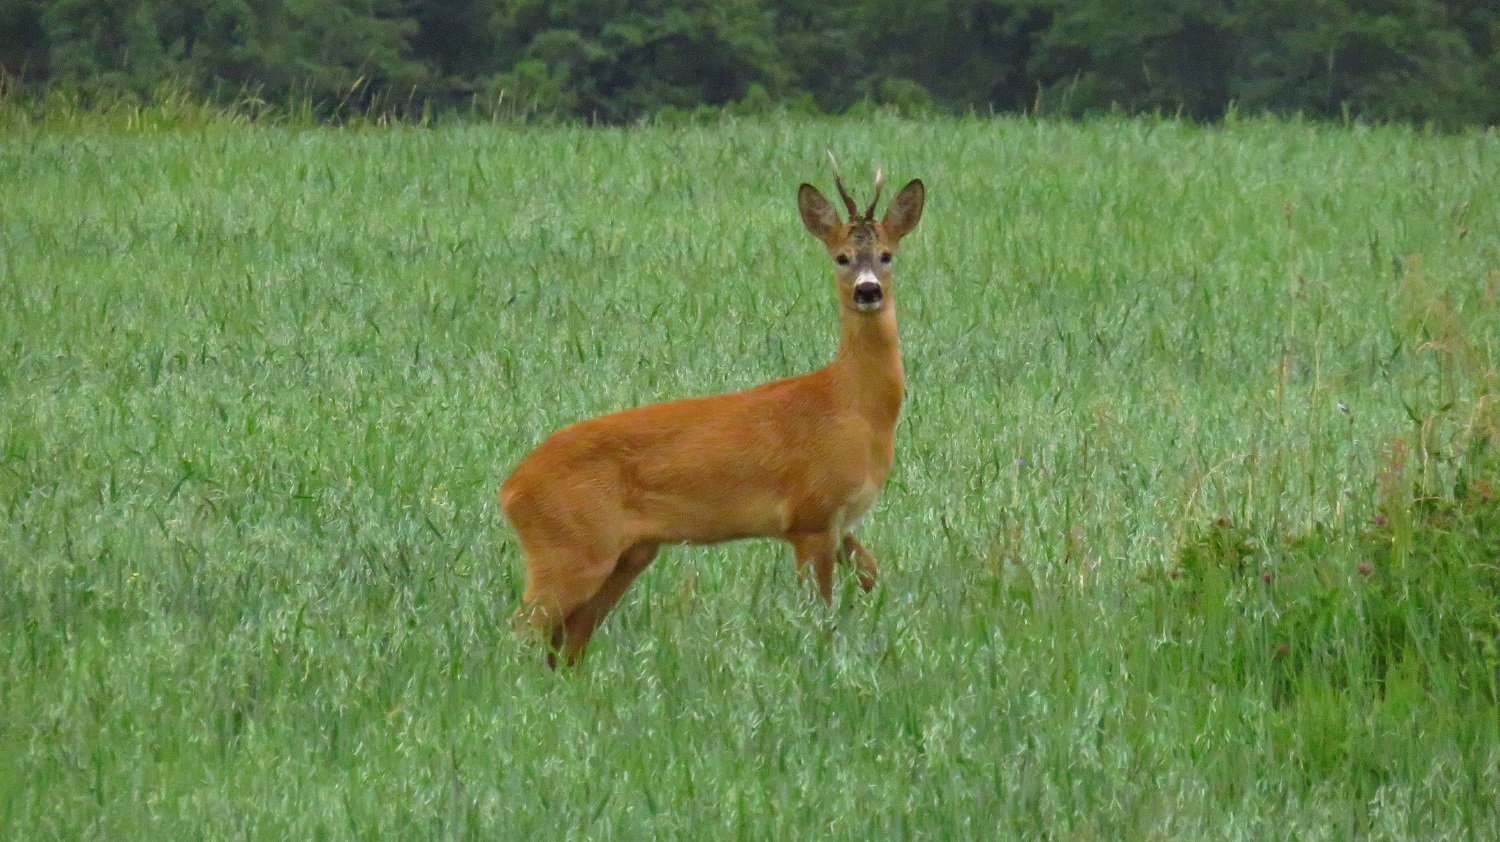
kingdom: Animalia
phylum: Chordata
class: Mammalia
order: Artiodactyla
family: Cervidae
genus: Capreolus
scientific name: Capreolus capreolus
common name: Western roe deer
